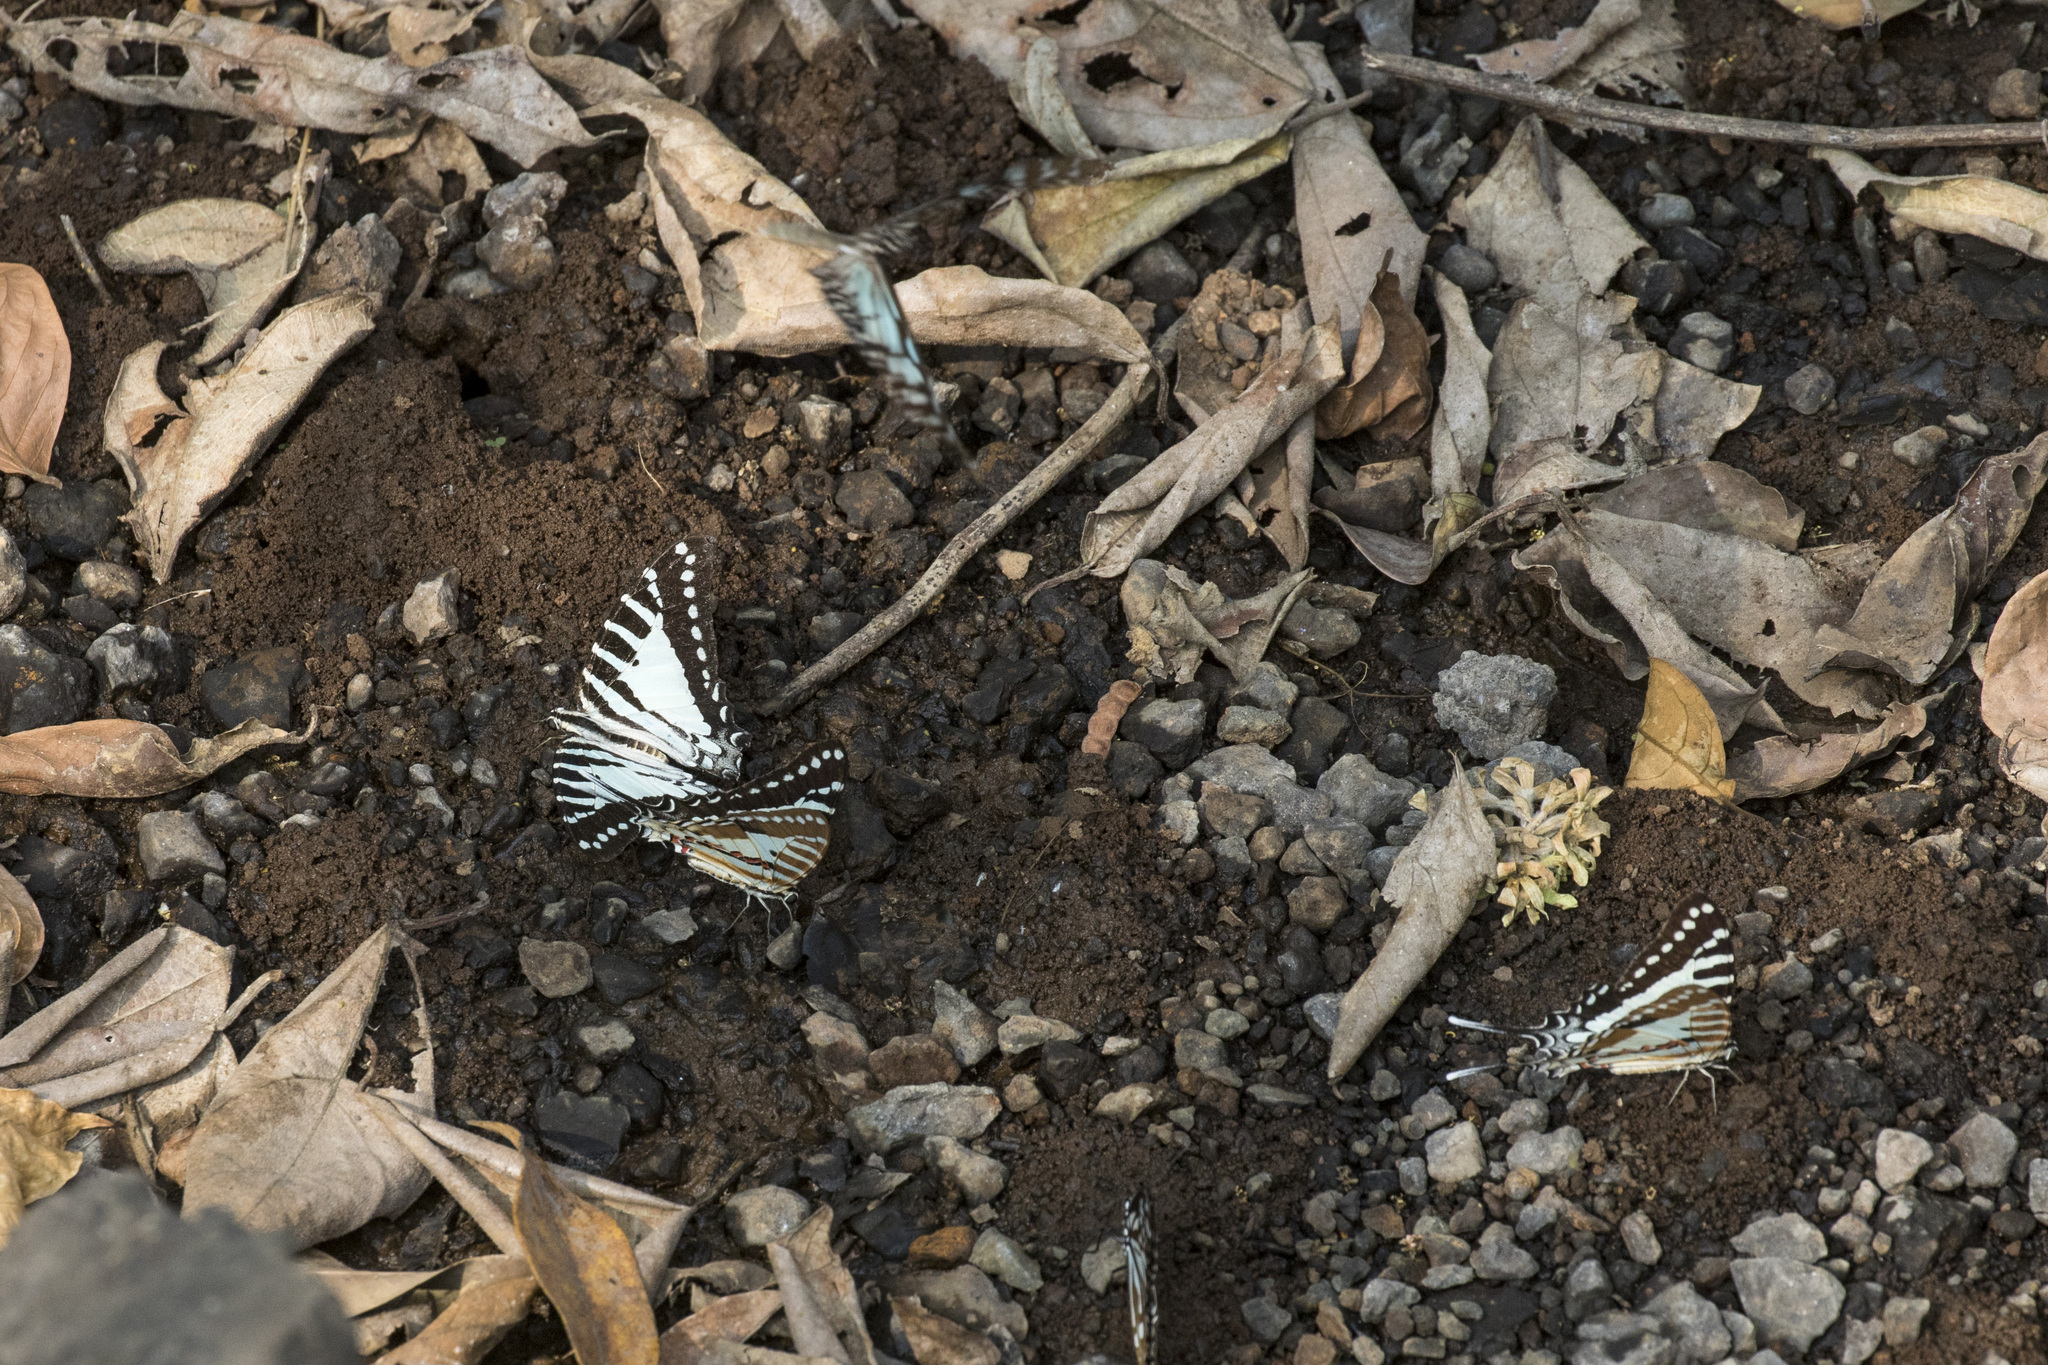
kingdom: Animalia
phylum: Arthropoda
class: Insecta
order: Lepidoptera
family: Papilionidae
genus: Graphium
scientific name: Graphium nomius
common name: Spot swordtail
